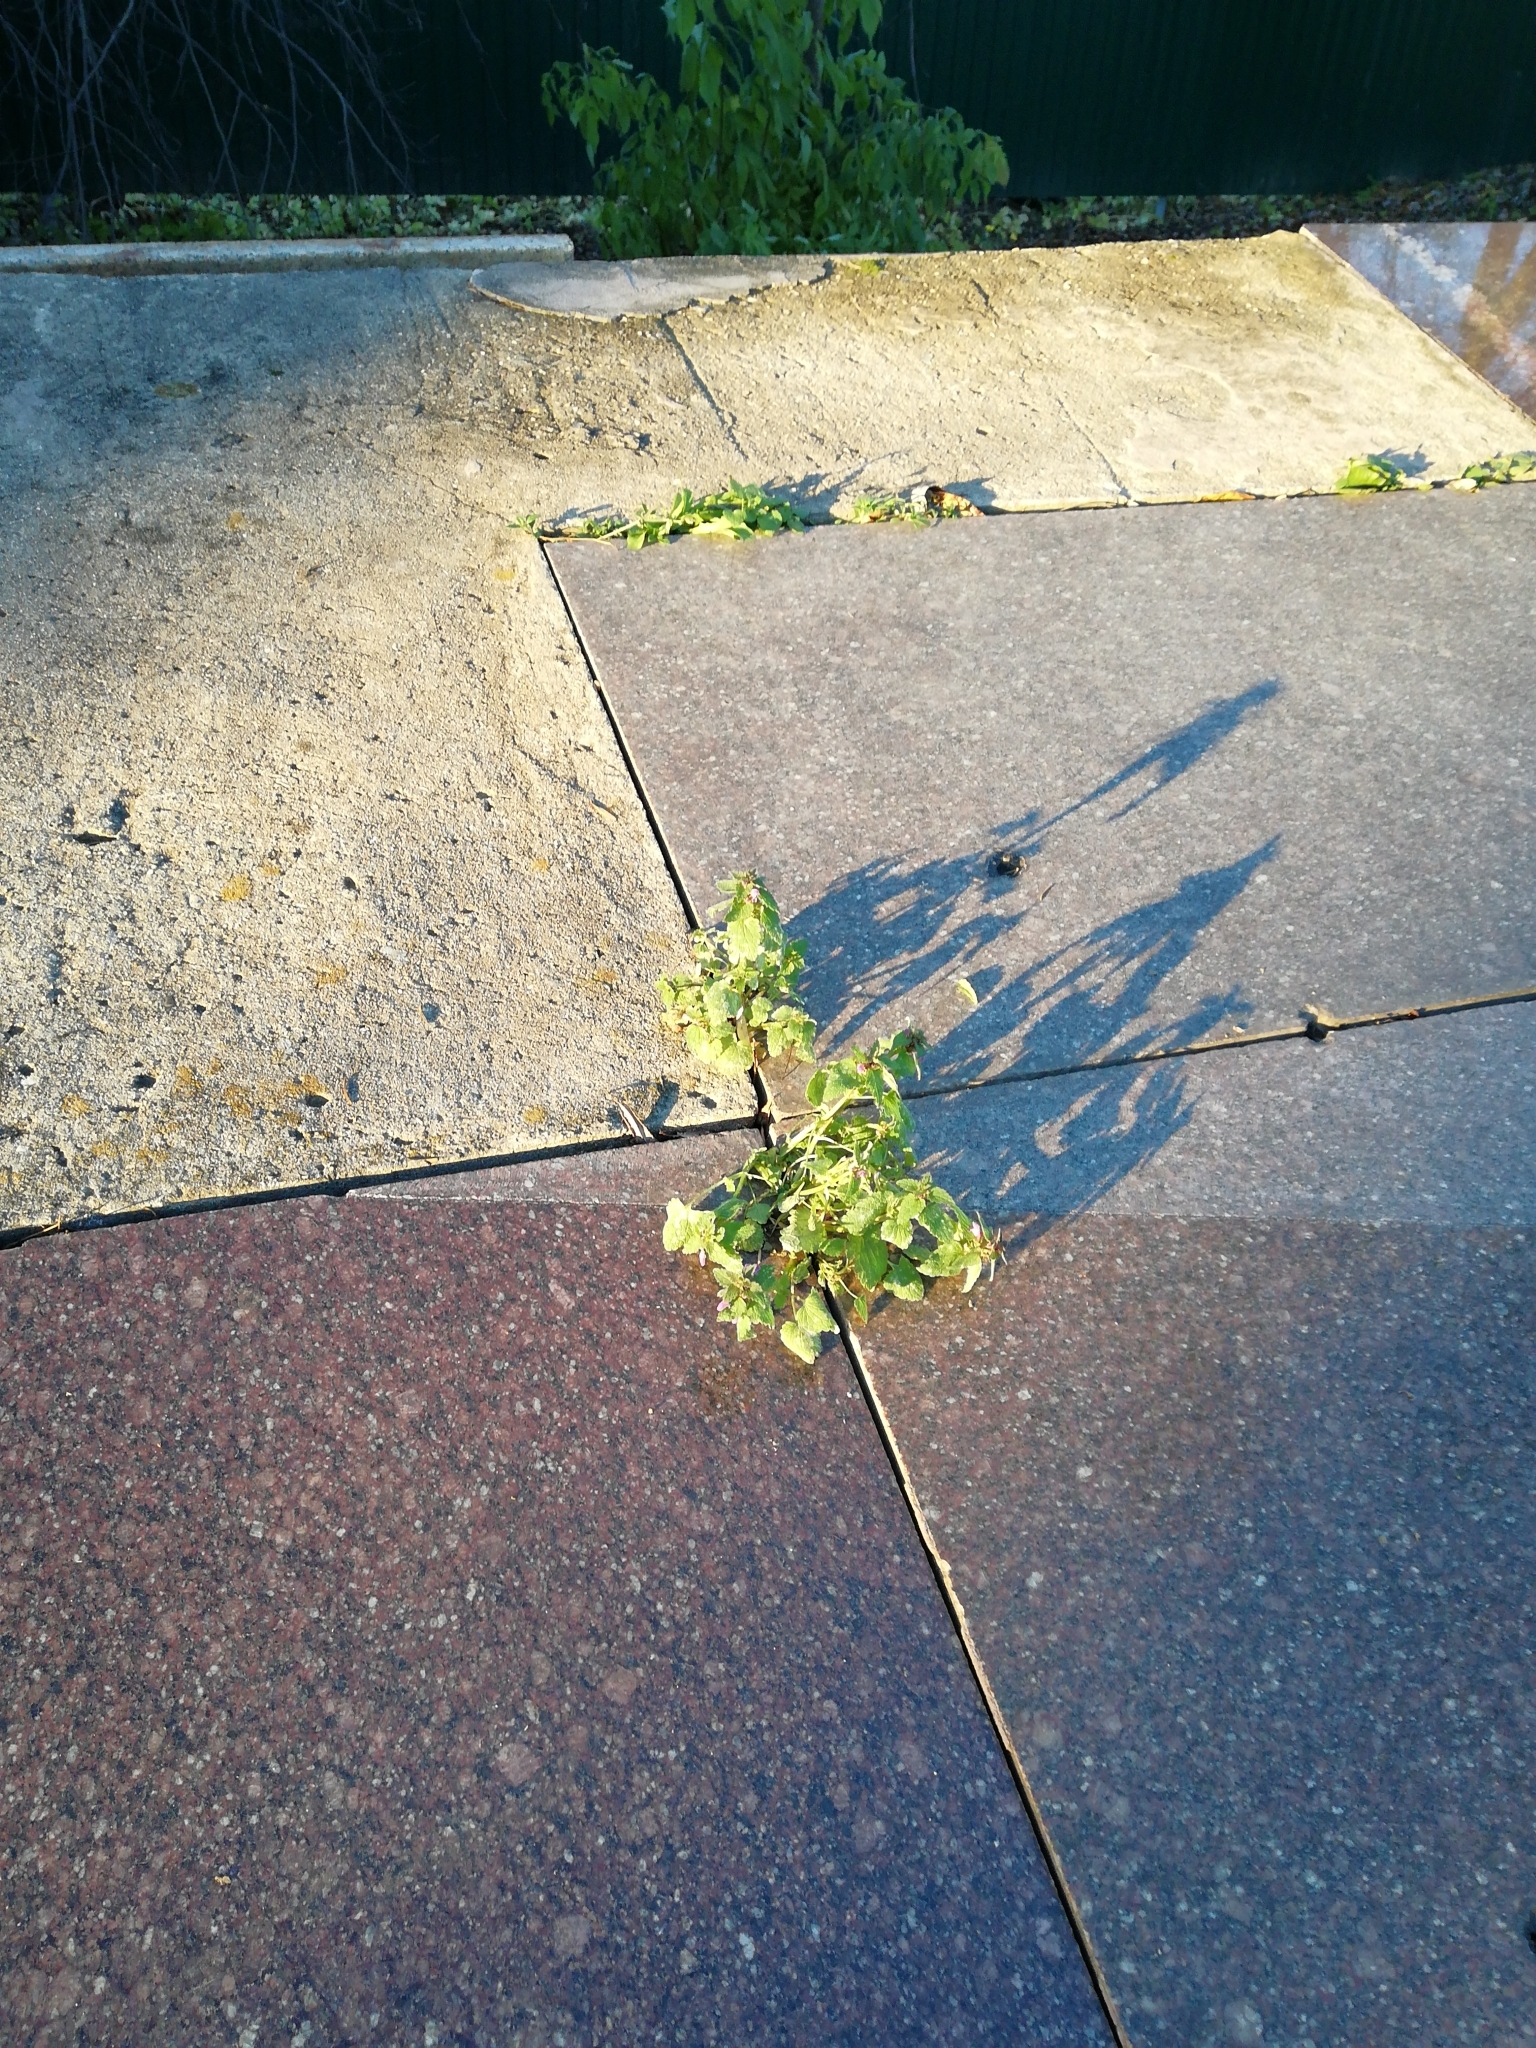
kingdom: Plantae
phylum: Tracheophyta
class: Magnoliopsida
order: Lamiales
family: Lamiaceae
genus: Lamium
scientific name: Lamium purpureum
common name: Red dead-nettle
